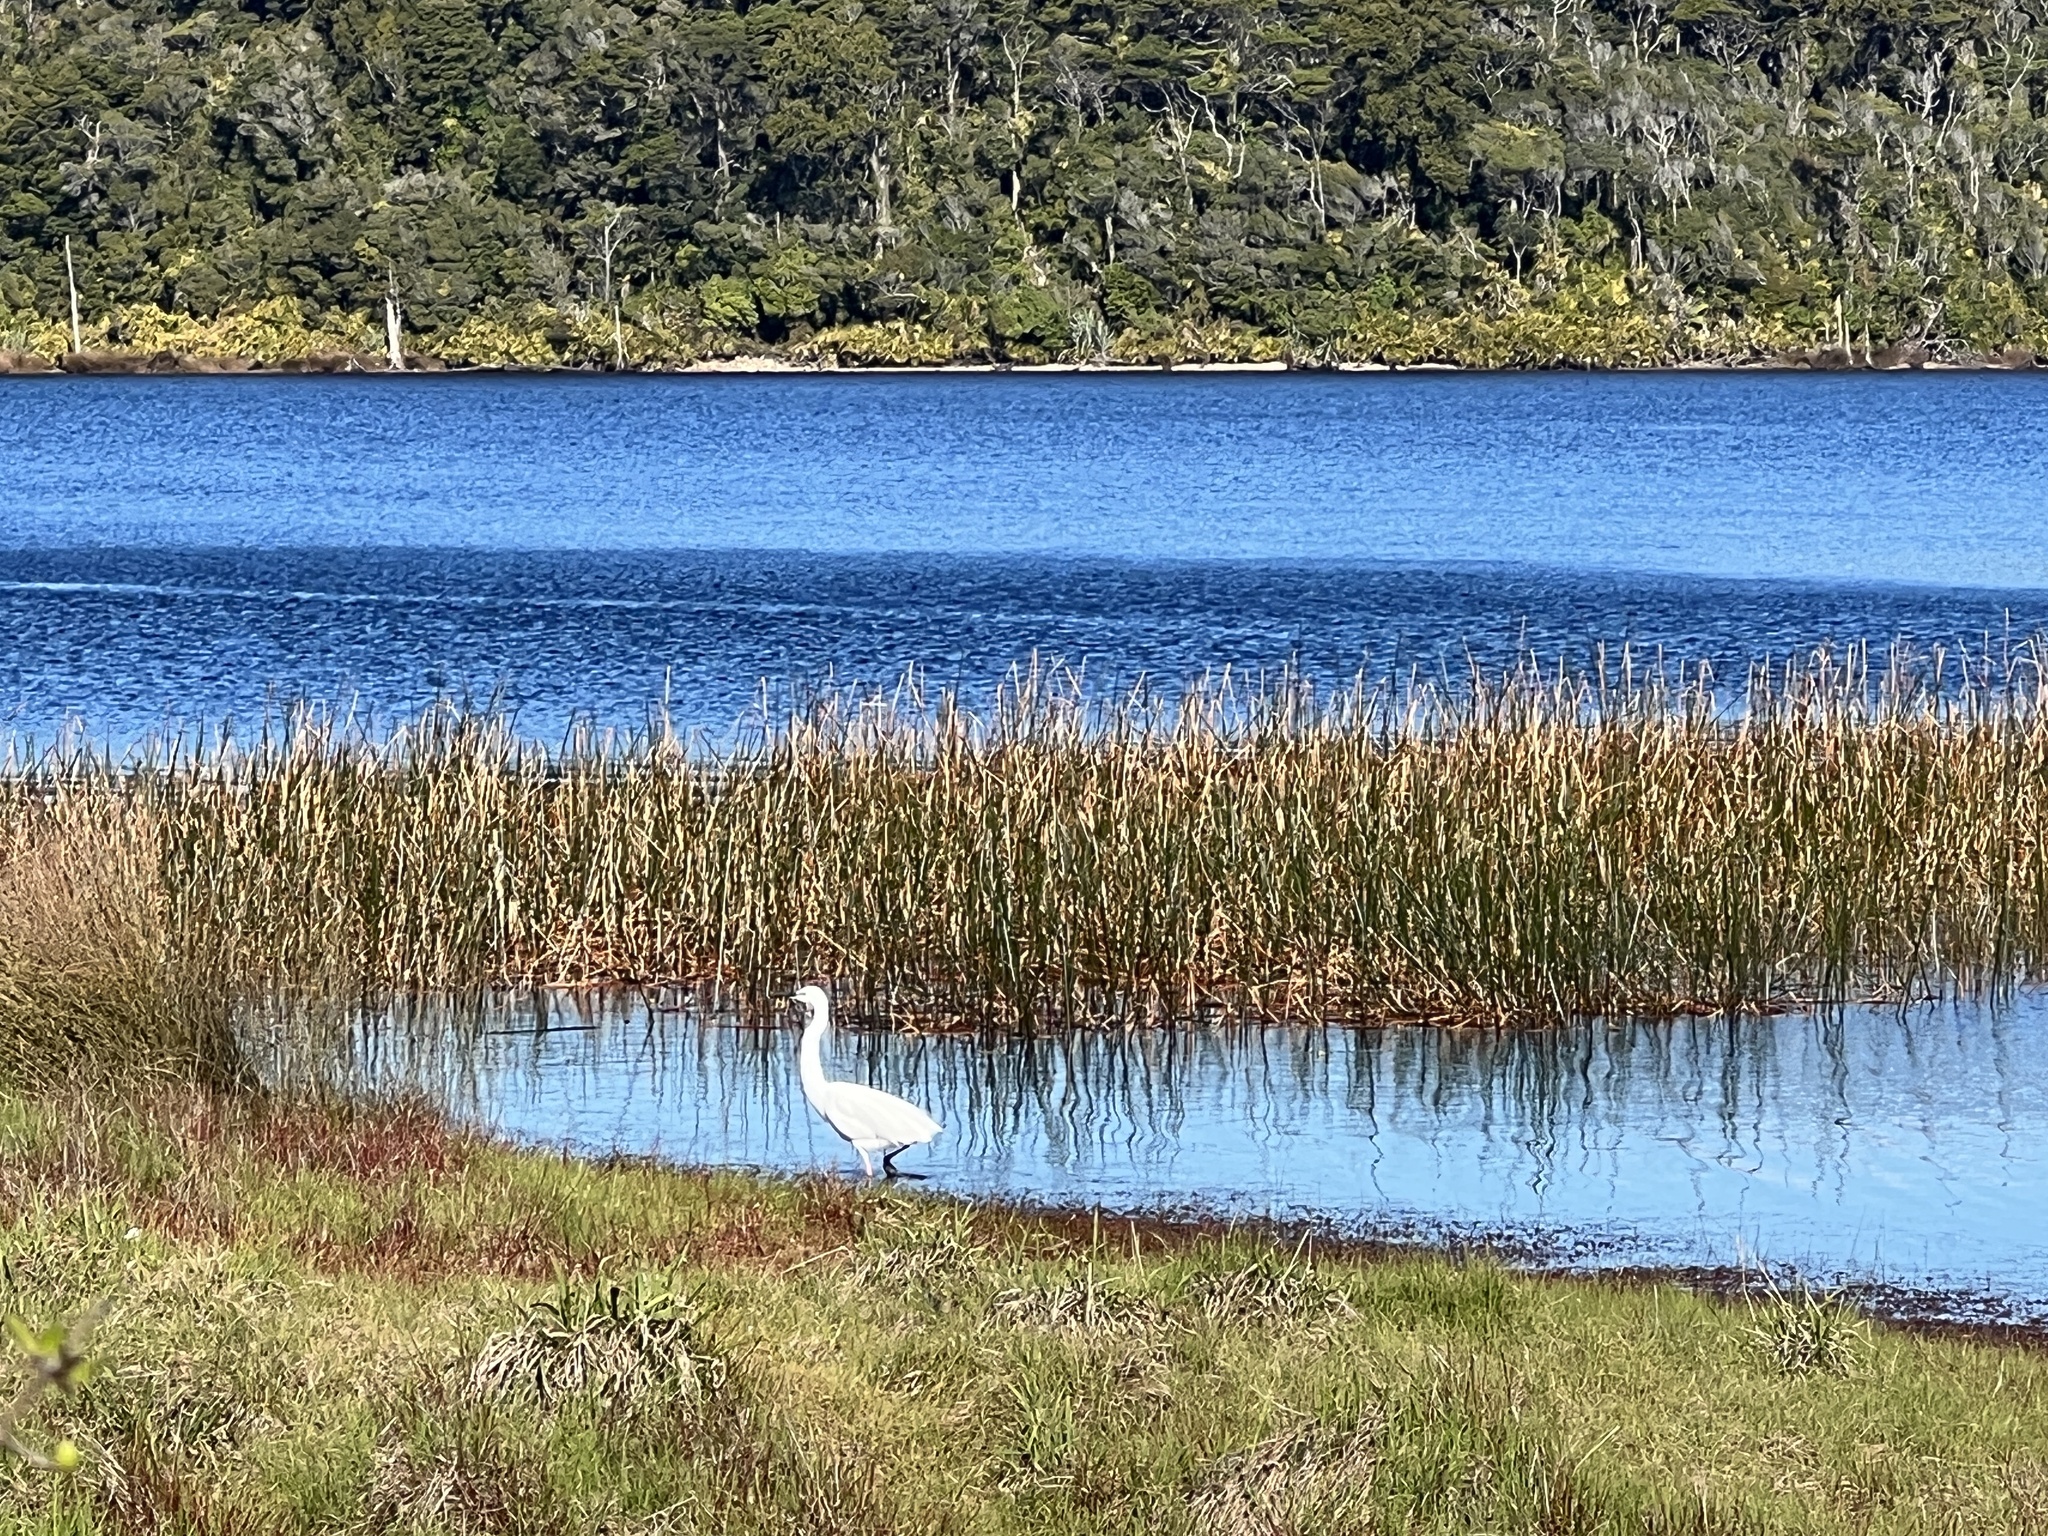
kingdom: Animalia
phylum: Chordata
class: Aves
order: Pelecaniformes
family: Ardeidae
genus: Ardea
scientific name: Ardea modesta
